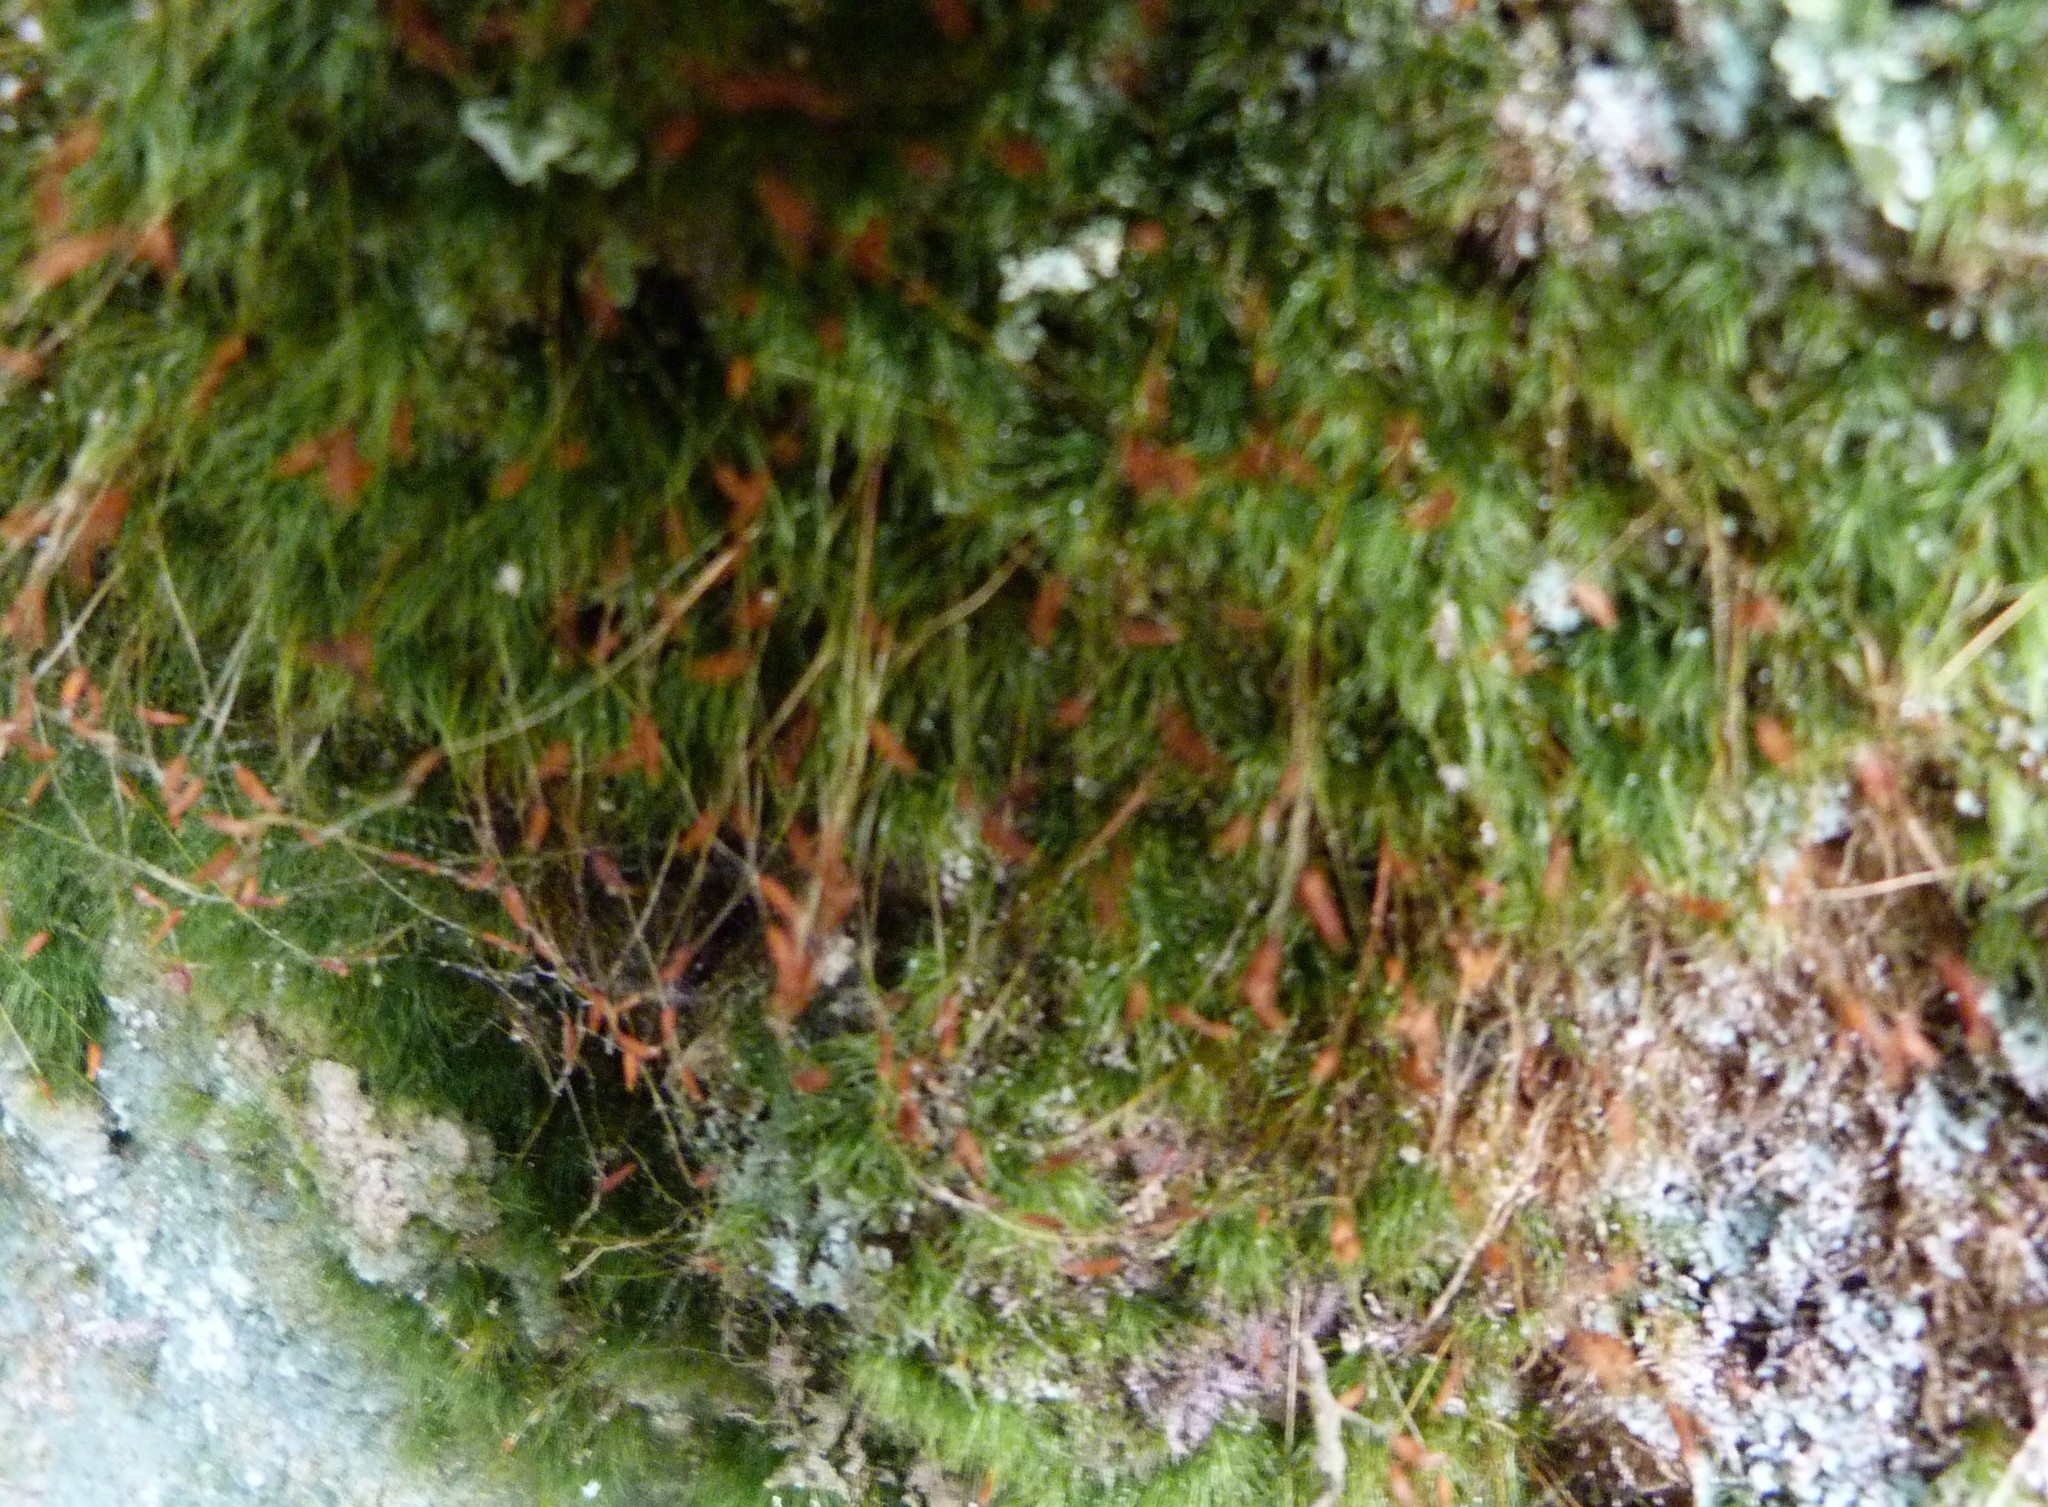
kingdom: Plantae
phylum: Bryophyta
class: Bryopsida
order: Dicranales
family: Ditrichaceae
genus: Ditrichum
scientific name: Ditrichum difficile
